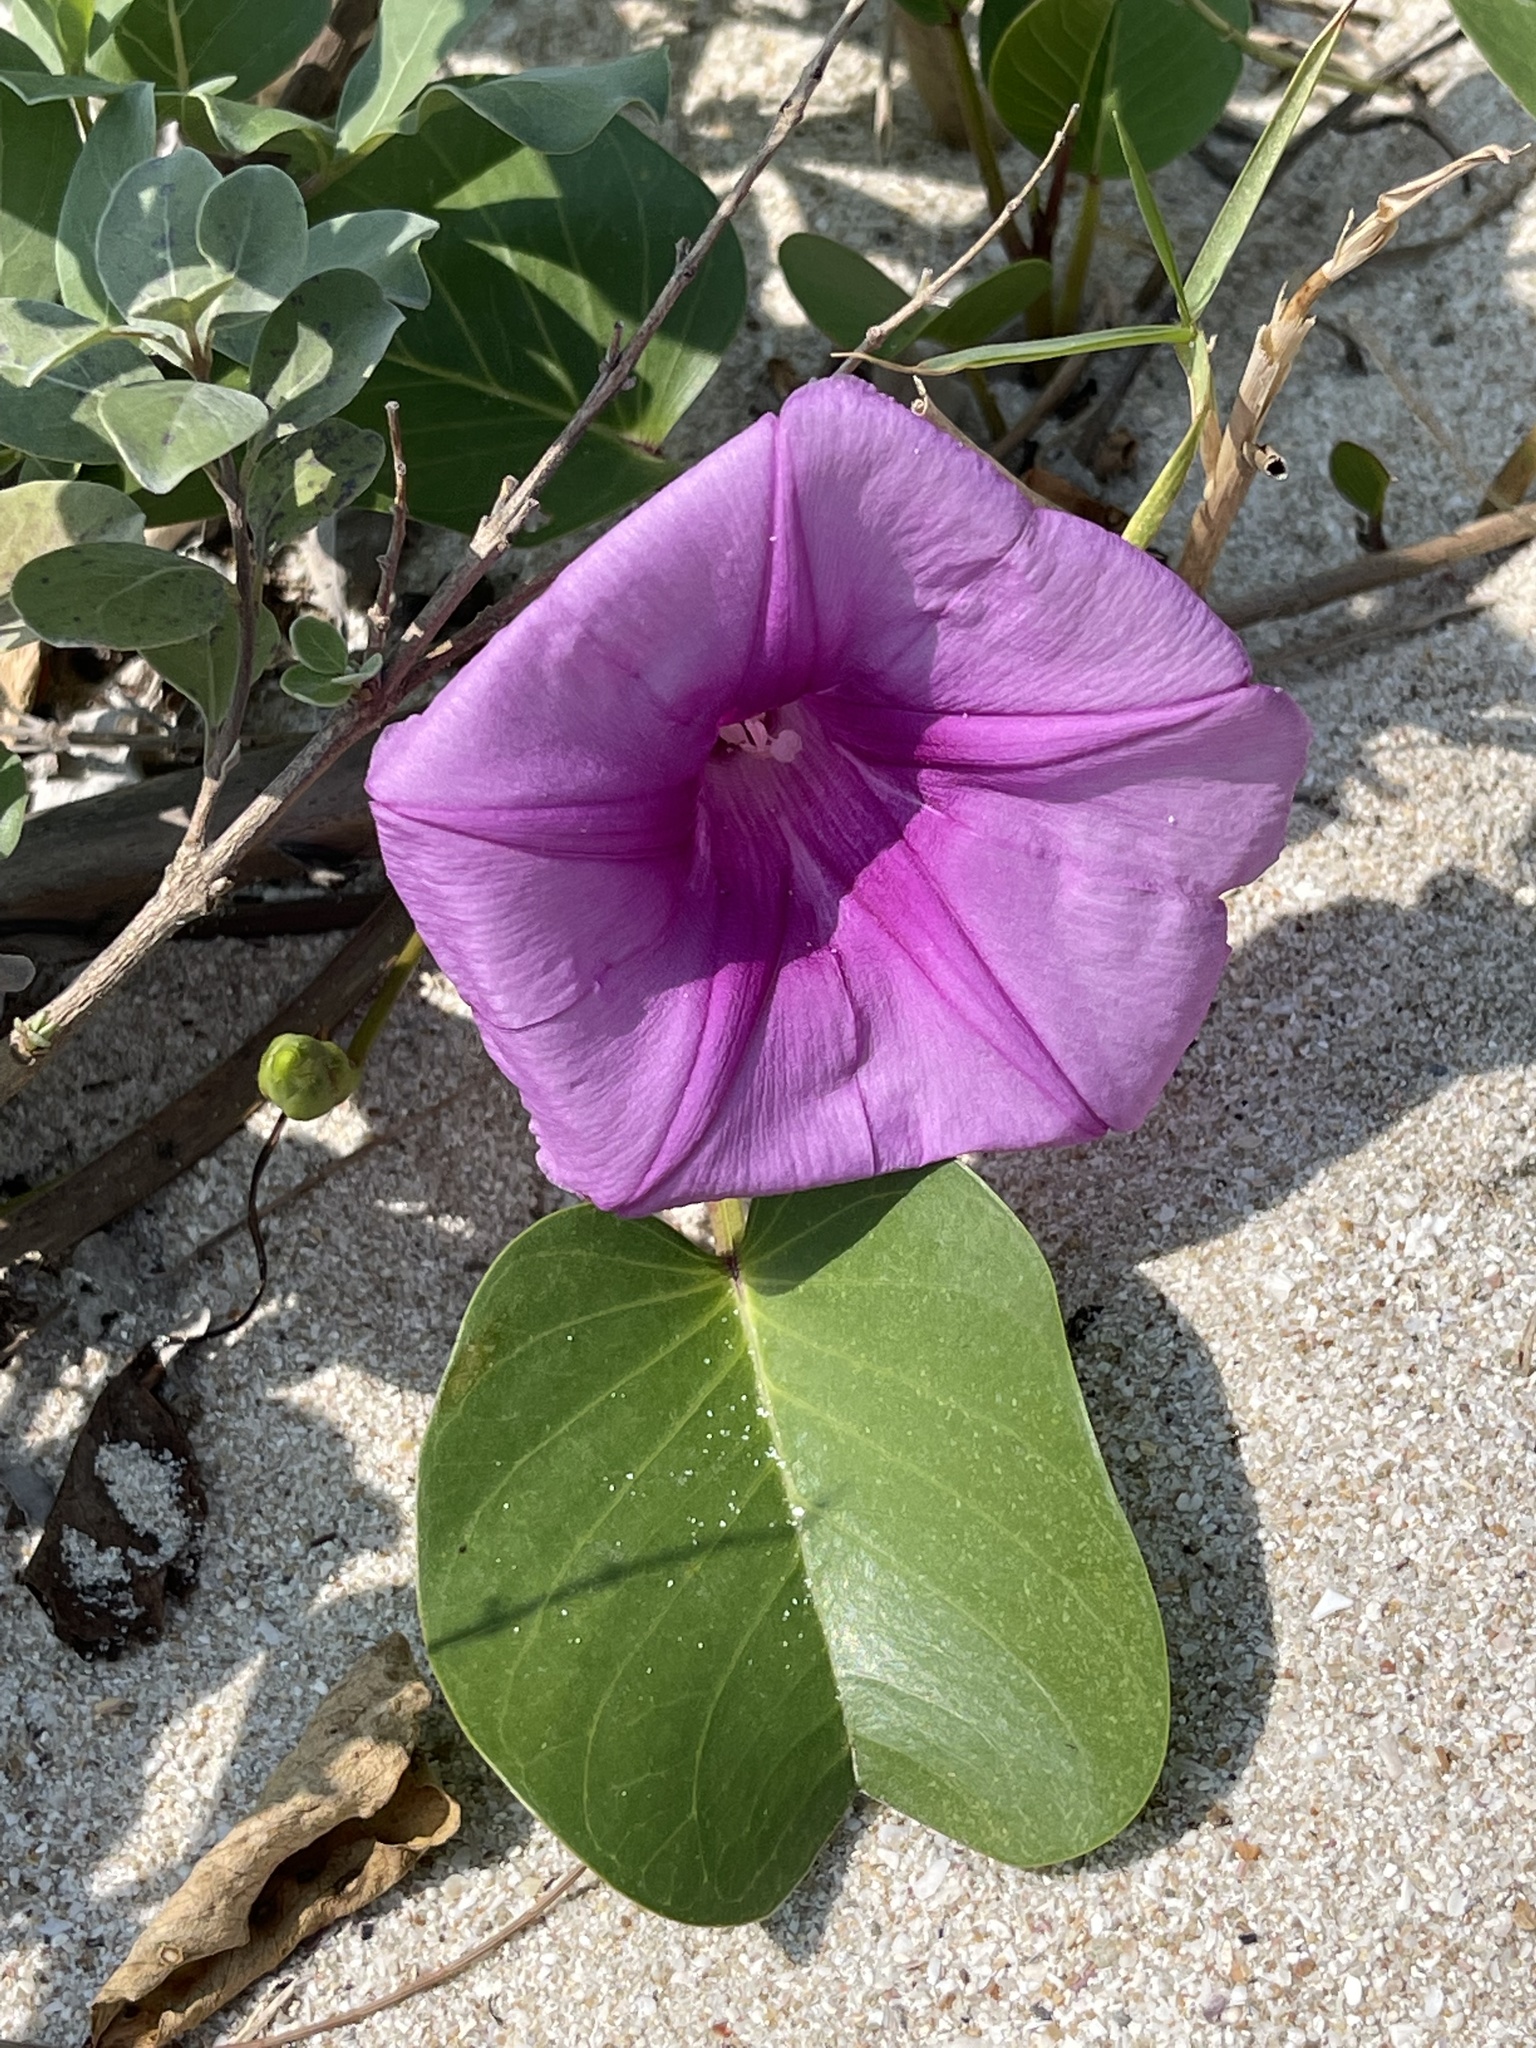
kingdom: Plantae
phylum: Tracheophyta
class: Magnoliopsida
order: Solanales
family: Convolvulaceae
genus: Ipomoea
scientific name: Ipomoea pes-caprae
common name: Beach morning glory
